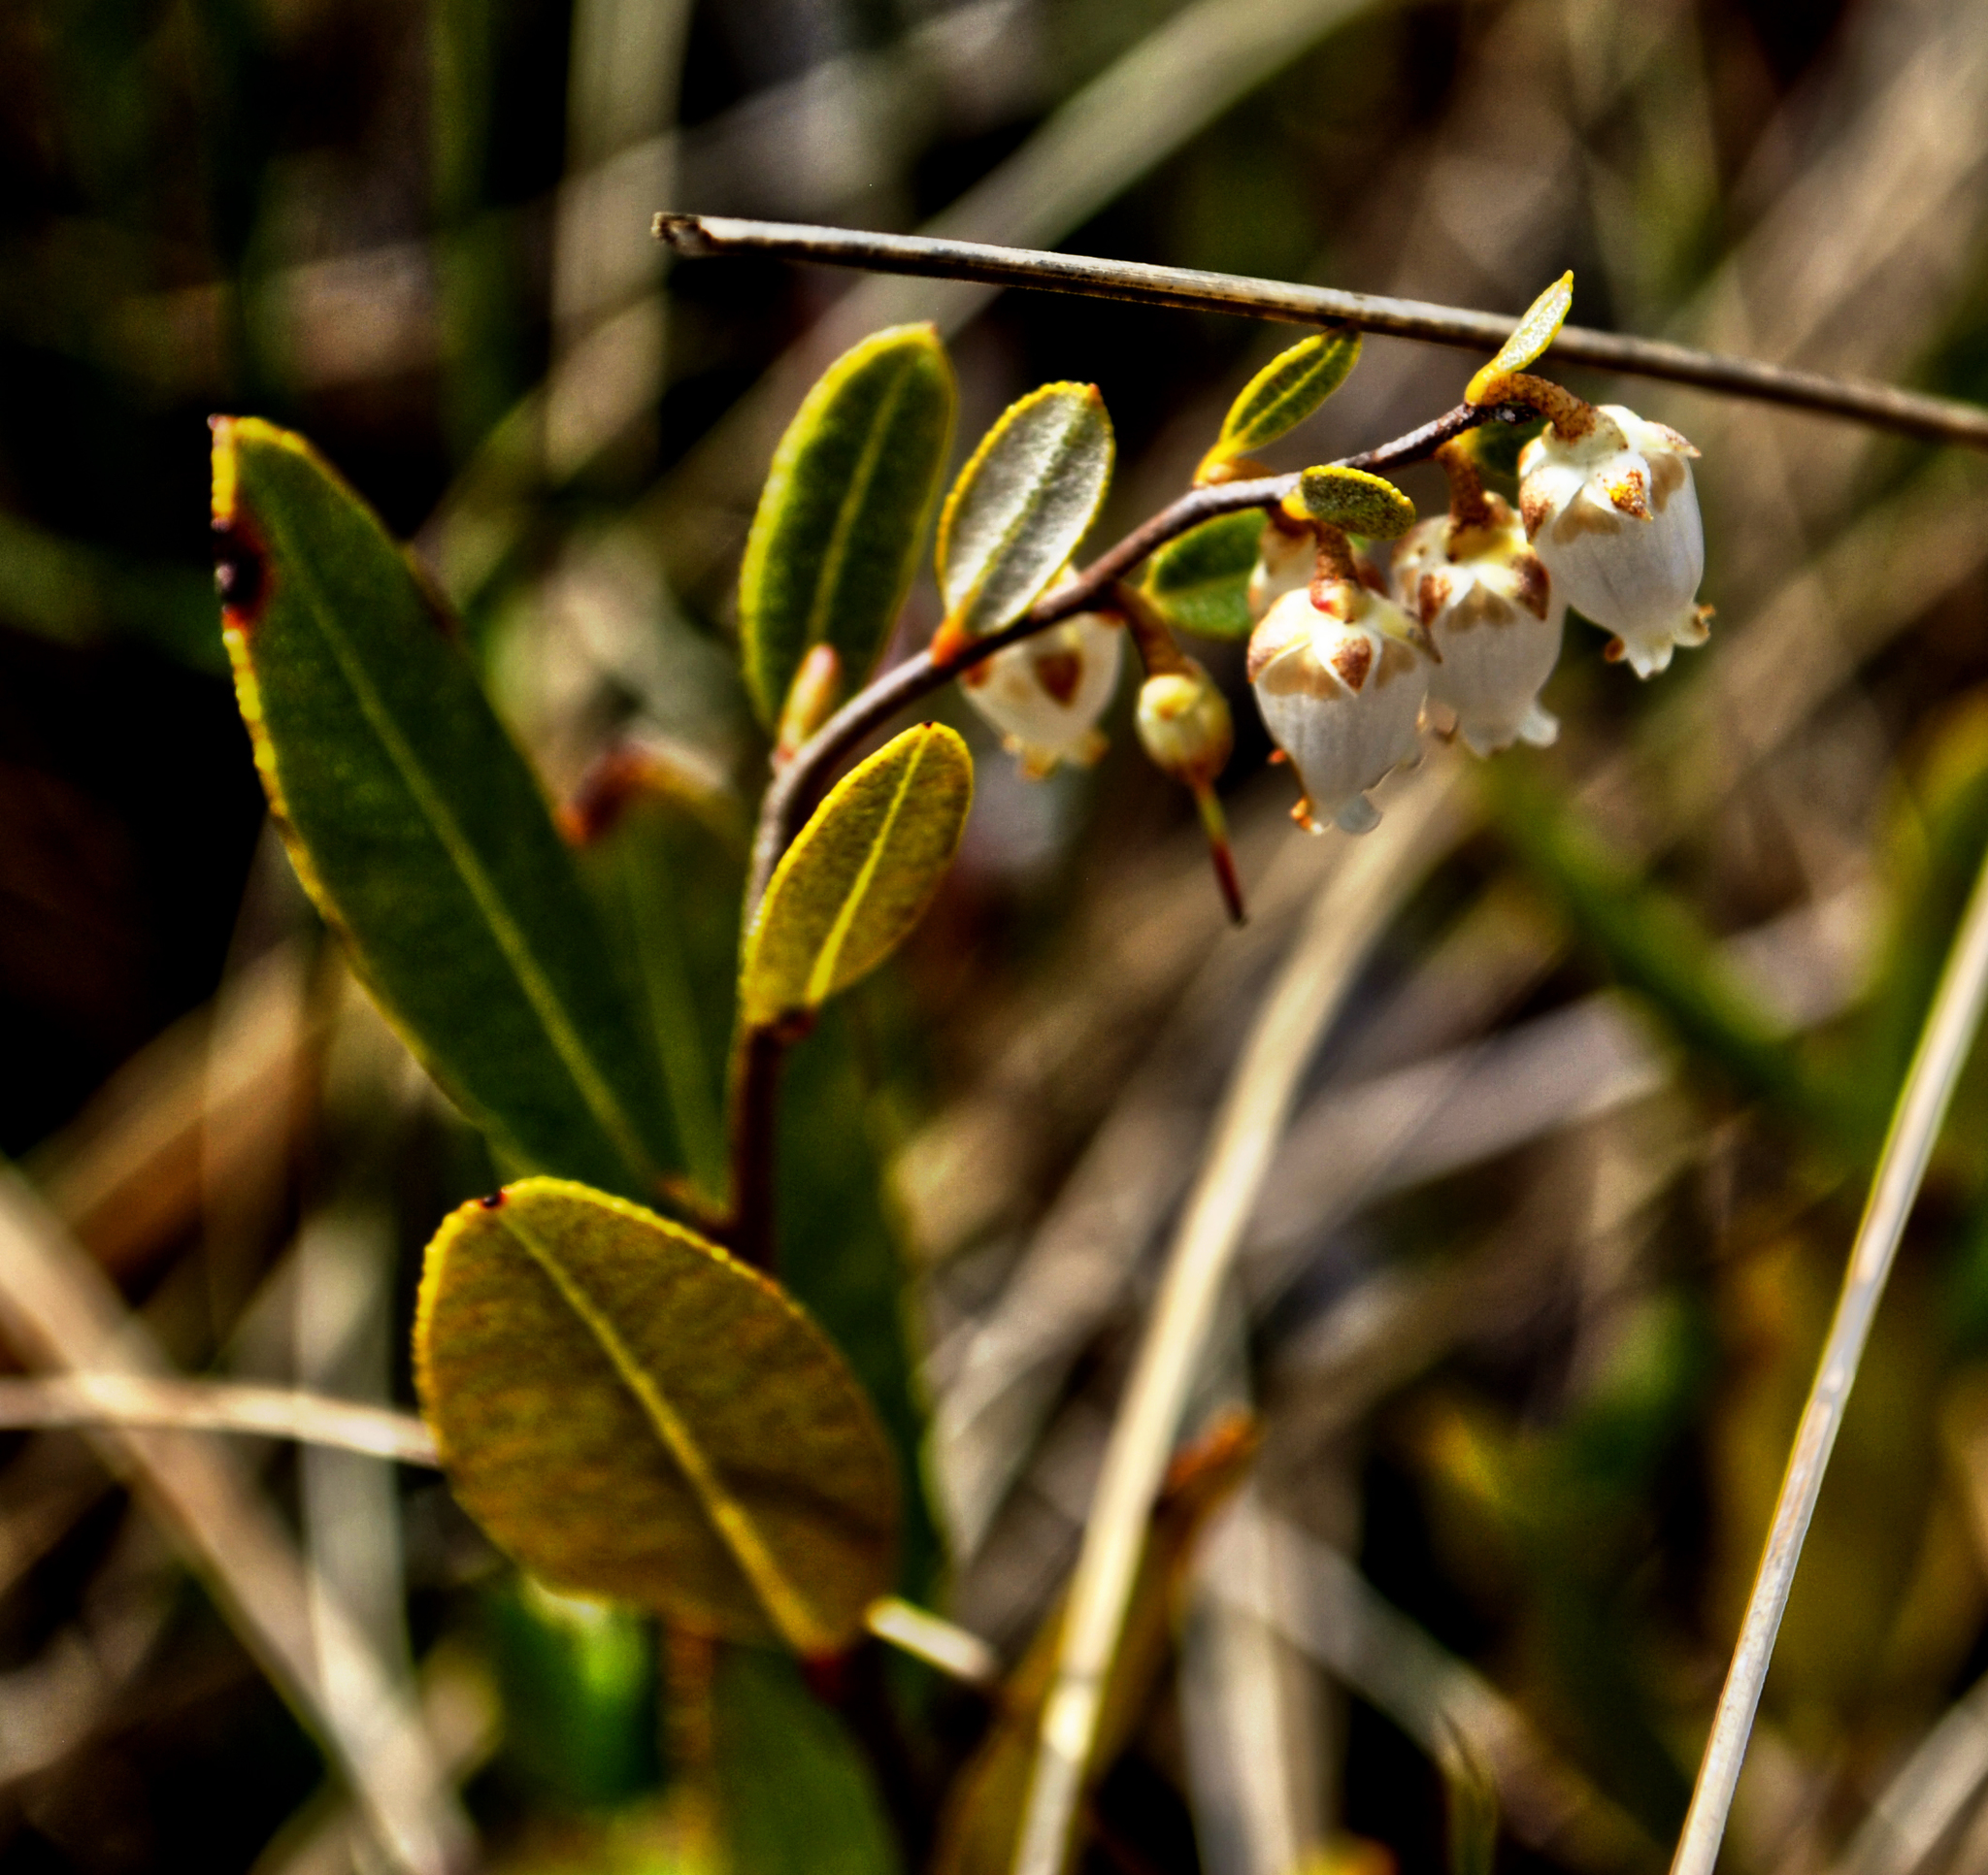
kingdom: Plantae
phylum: Tracheophyta
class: Magnoliopsida
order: Ericales
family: Ericaceae
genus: Chamaedaphne
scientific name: Chamaedaphne calyculata
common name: Leatherleaf
